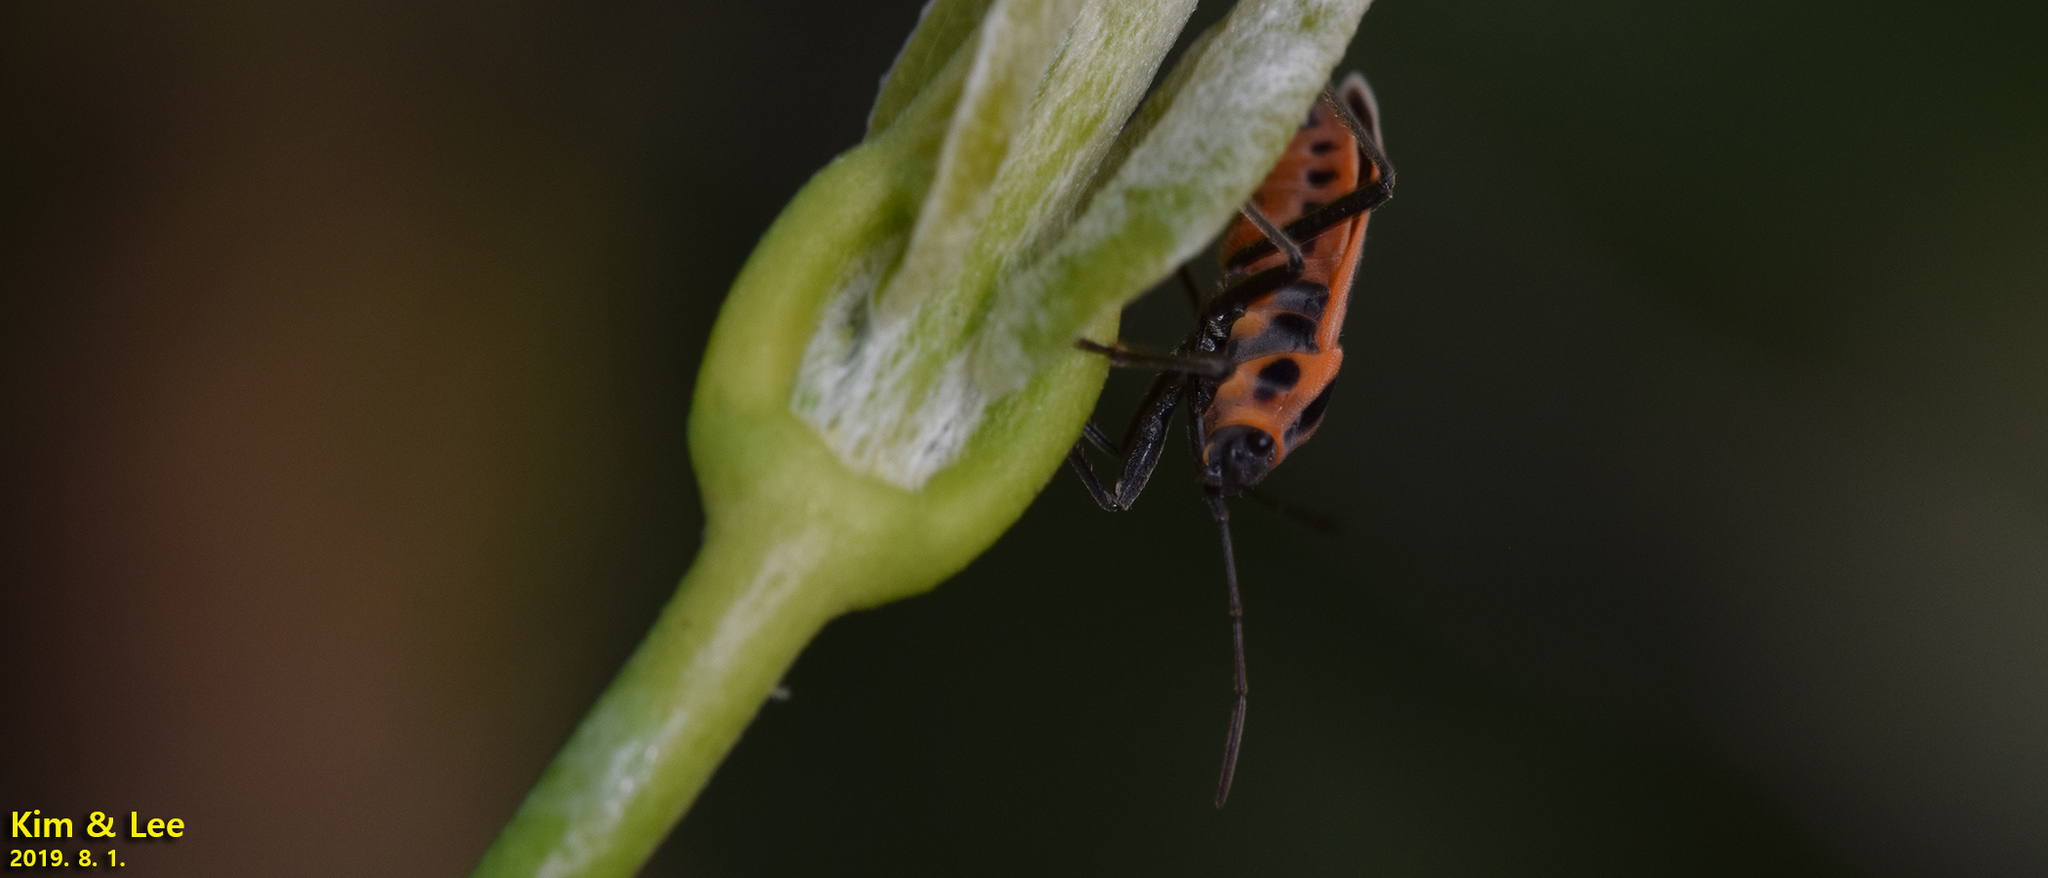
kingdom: Animalia
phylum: Arthropoda
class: Insecta
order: Hemiptera
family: Lygaeidae
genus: Tropidothorax
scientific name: Tropidothorax cruciger
